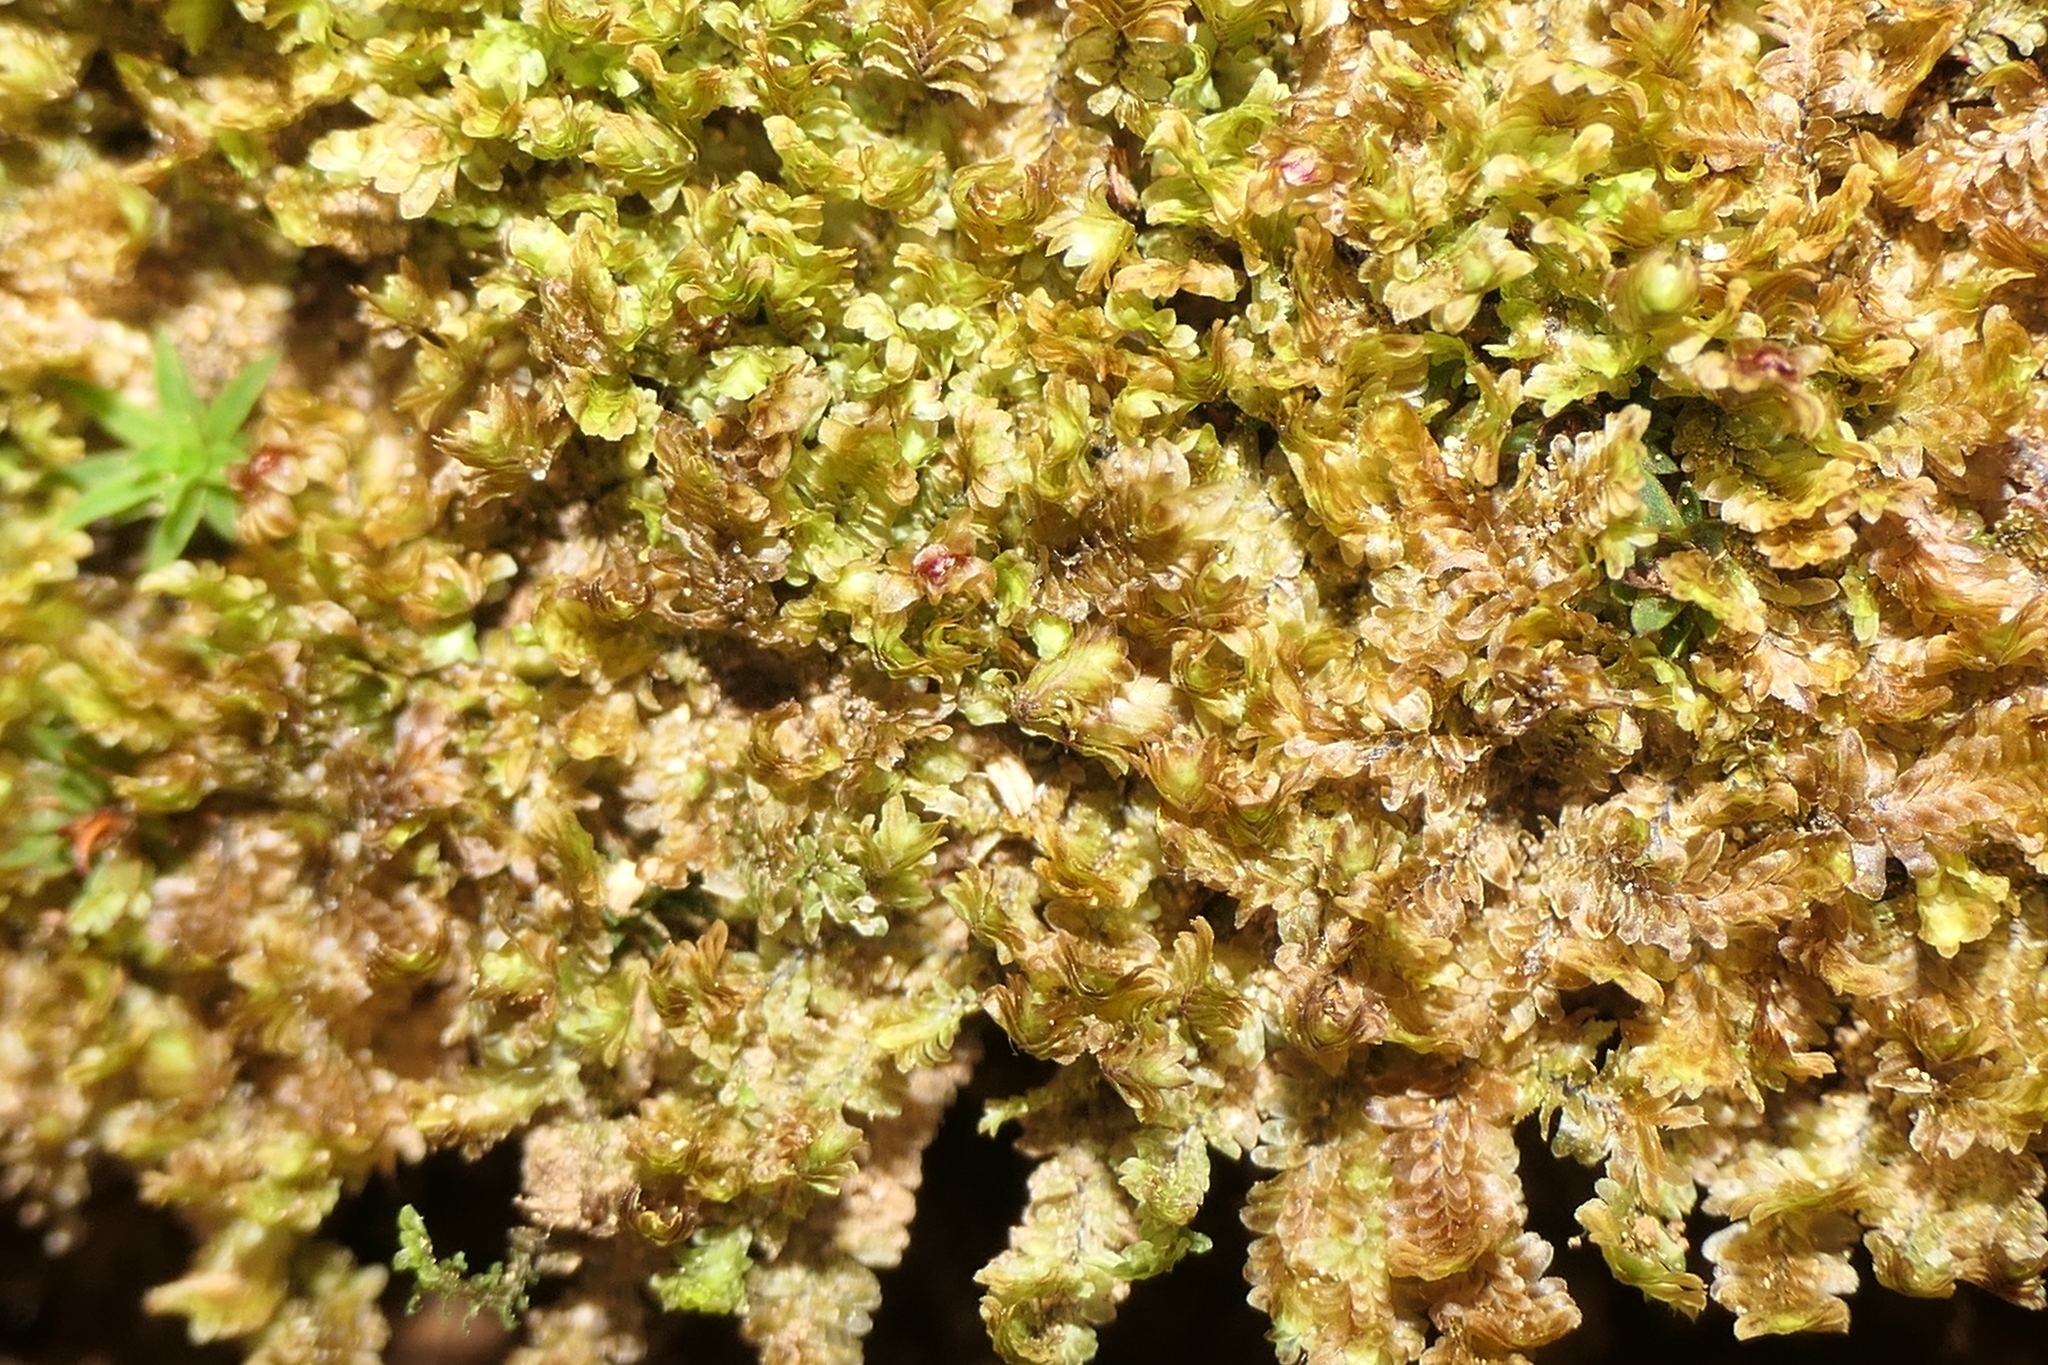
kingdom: Plantae
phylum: Marchantiophyta
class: Jungermanniopsida
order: Jungermanniales
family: Scapaniaceae
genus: Diplophyllum
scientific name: Diplophyllum albicans
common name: White earwort
